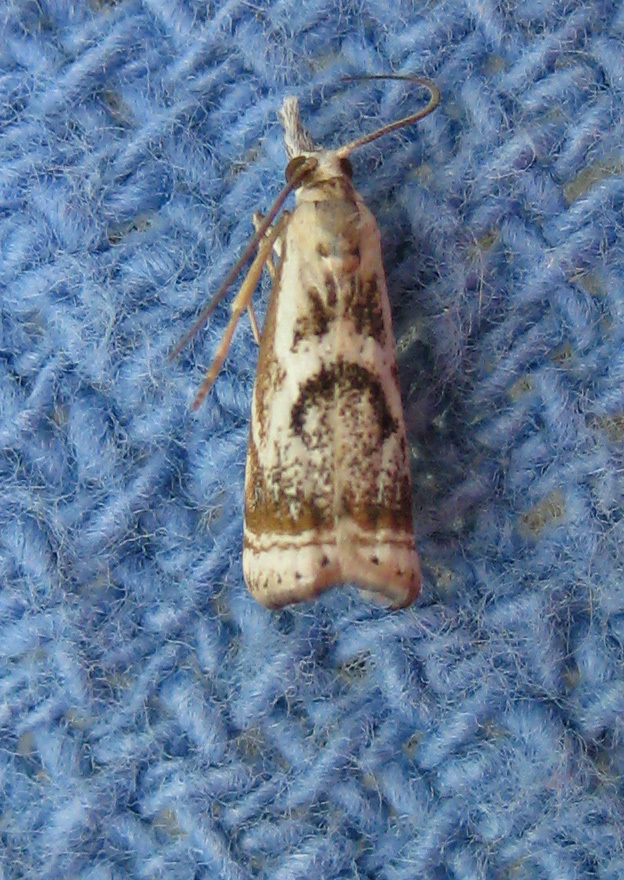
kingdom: Animalia
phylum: Arthropoda
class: Insecta
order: Lepidoptera
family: Crambidae
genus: Microcrambus
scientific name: Microcrambus elegans
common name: Elegant grass-veneer
